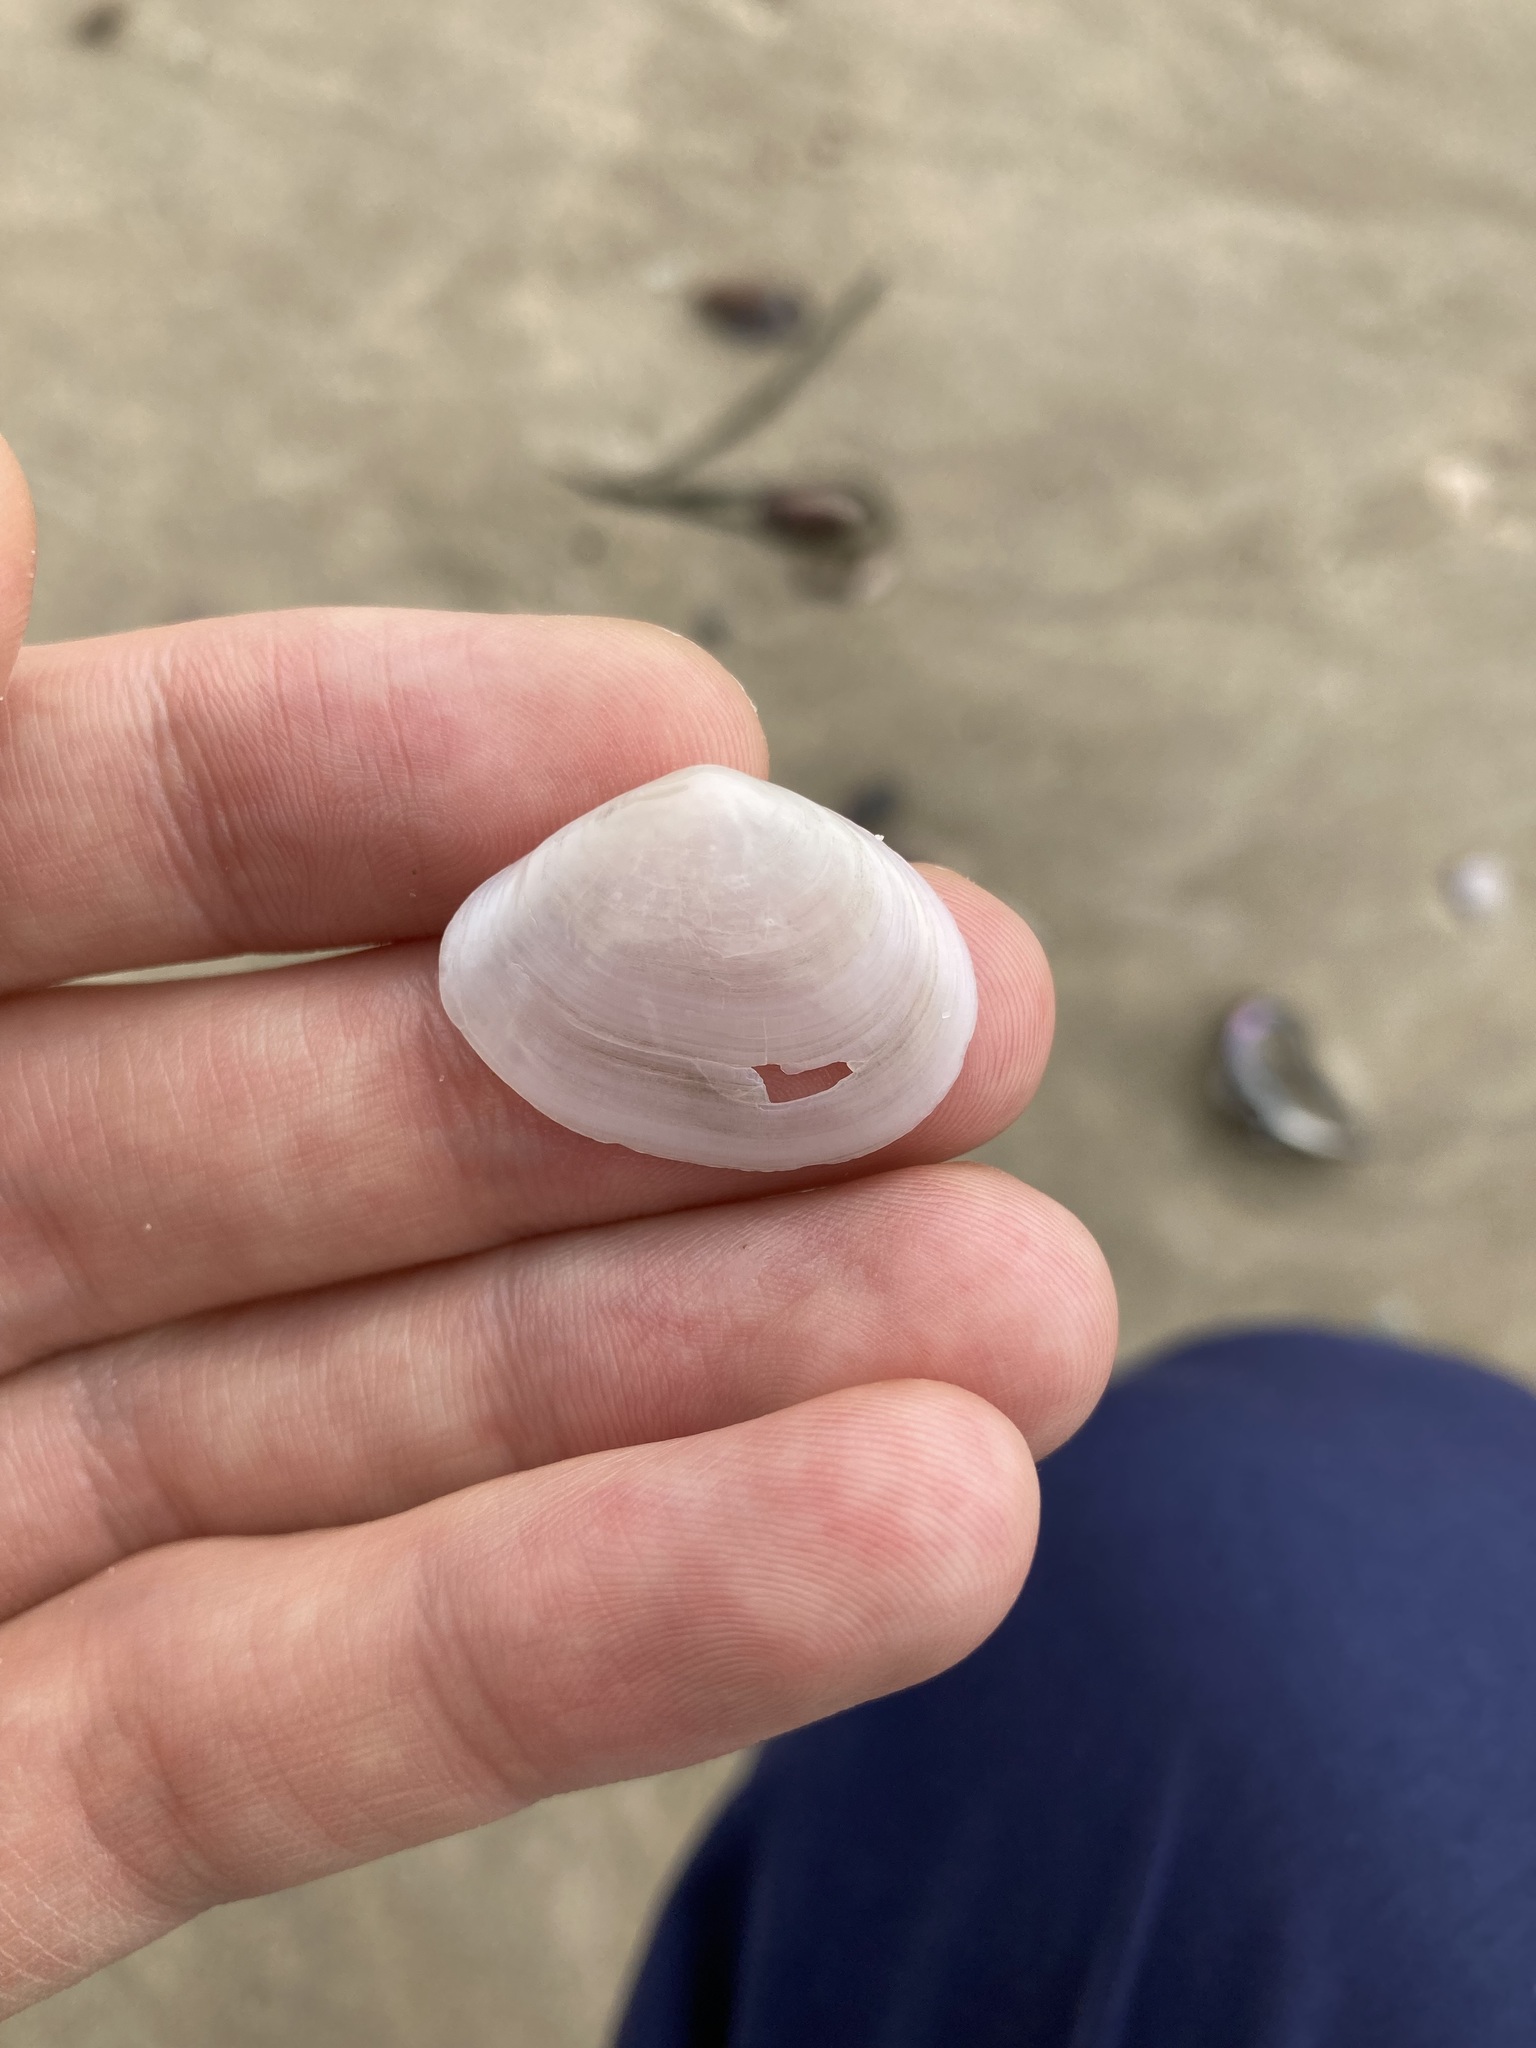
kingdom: Animalia
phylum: Mollusca
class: Bivalvia
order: Cardiida
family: Tellinidae
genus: Macomona
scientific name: Macomona deltoidalis
